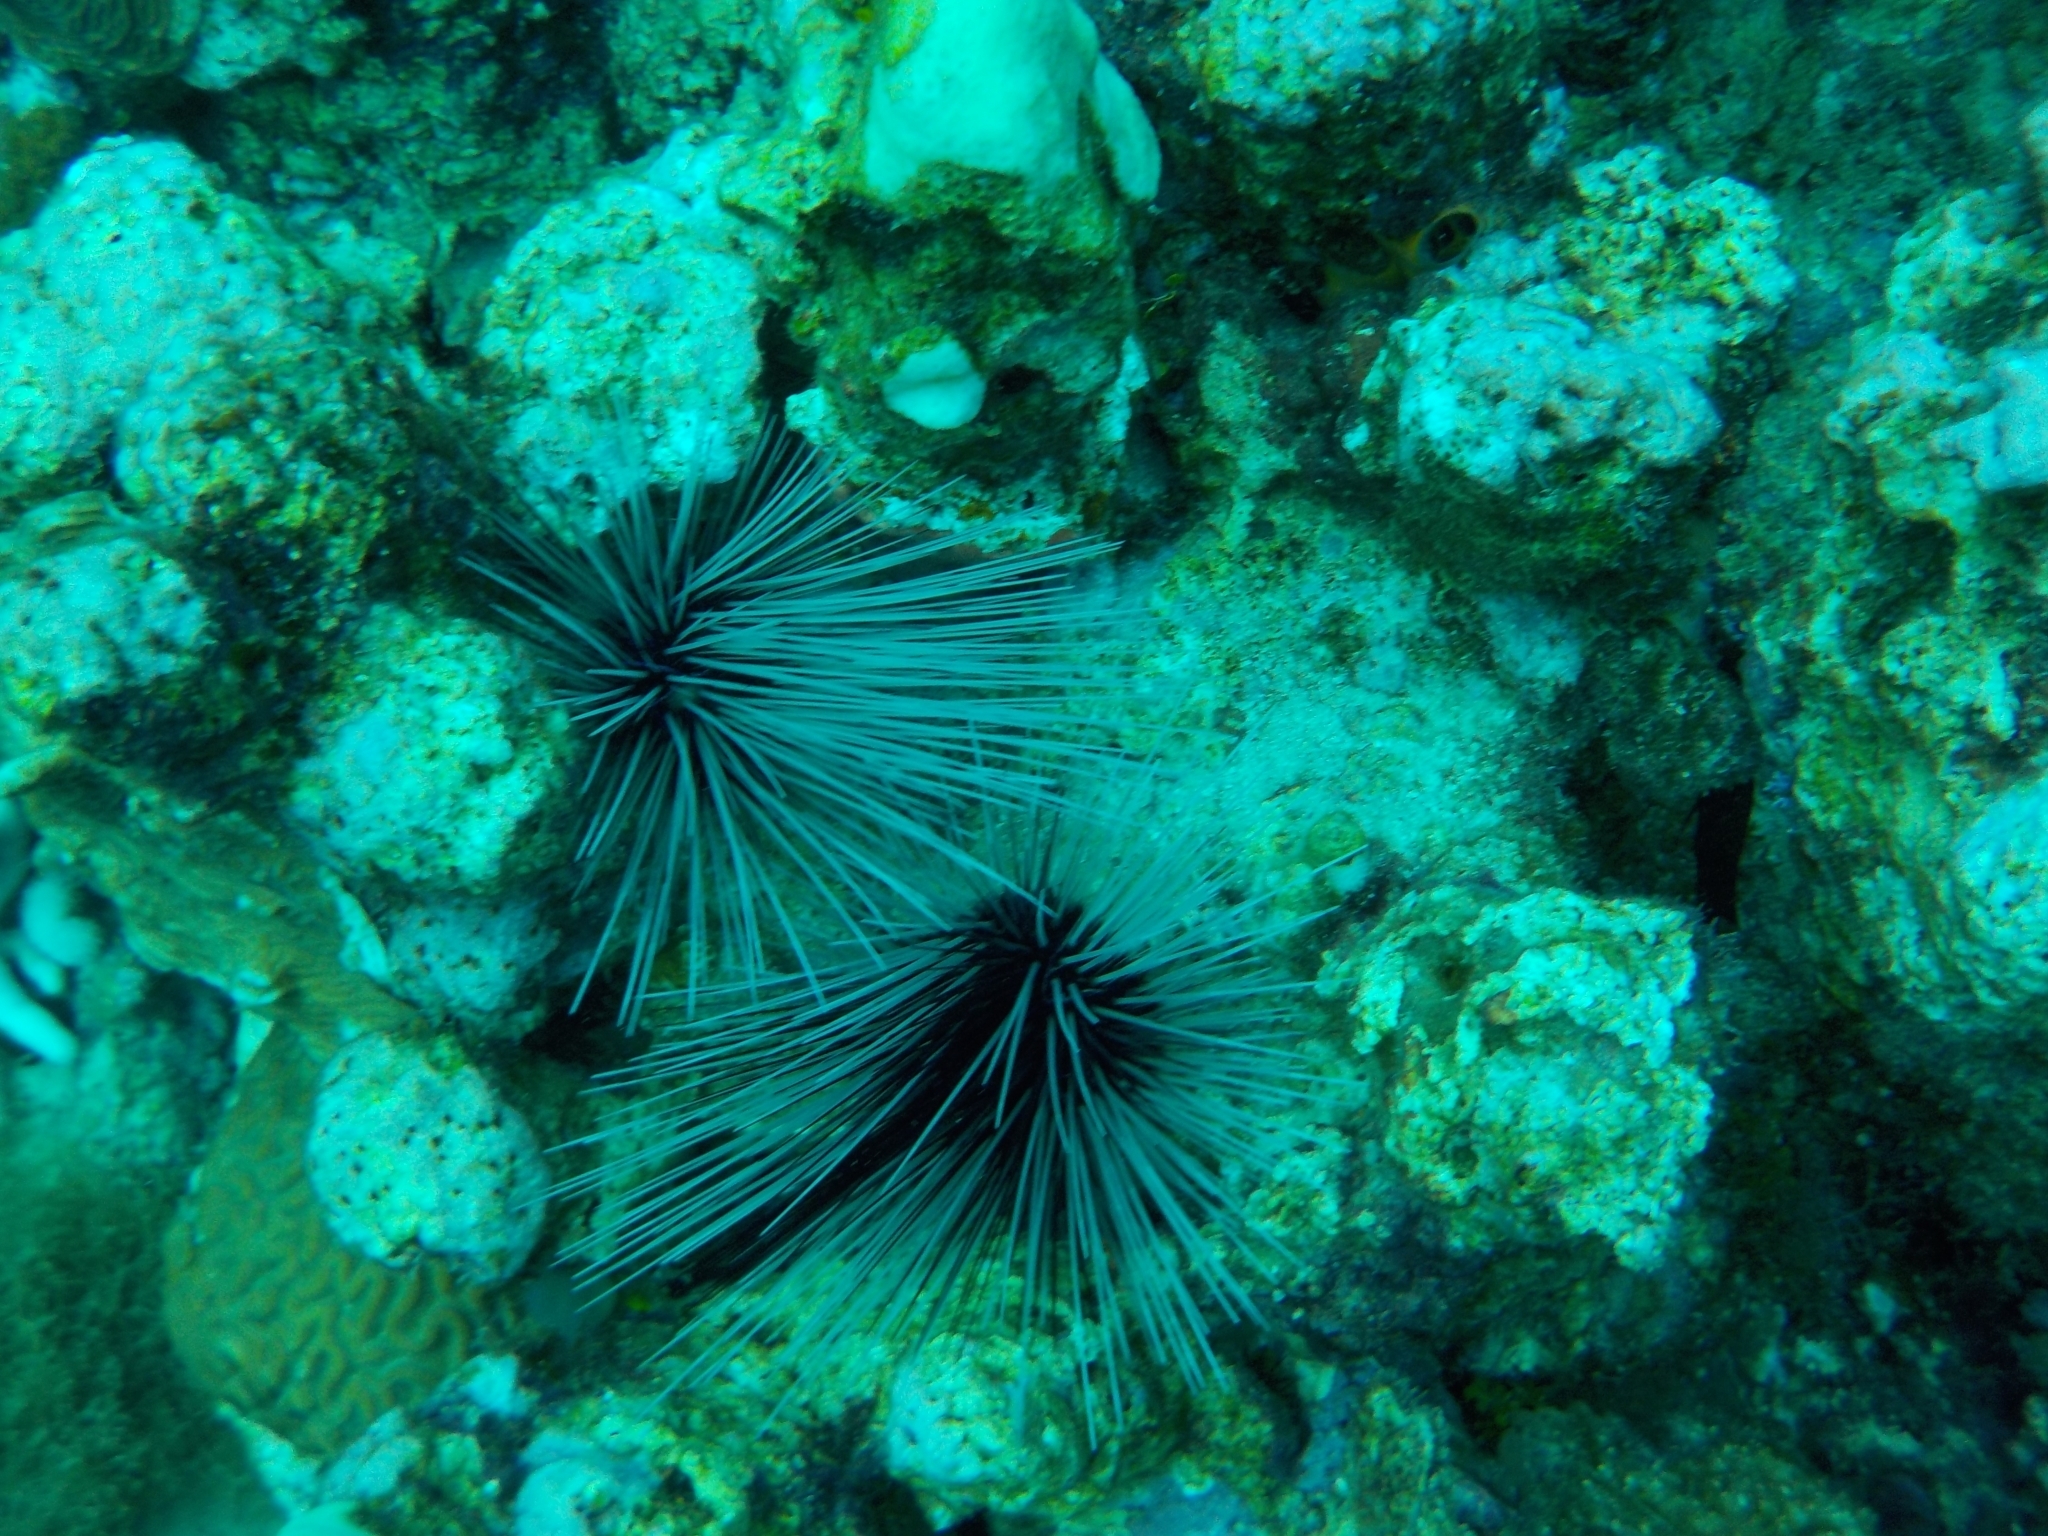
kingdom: Animalia
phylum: Echinodermata
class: Echinoidea
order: Diadematoida
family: Diadematidae
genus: Diadema
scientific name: Diadema antillarum
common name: Spiny urchin
